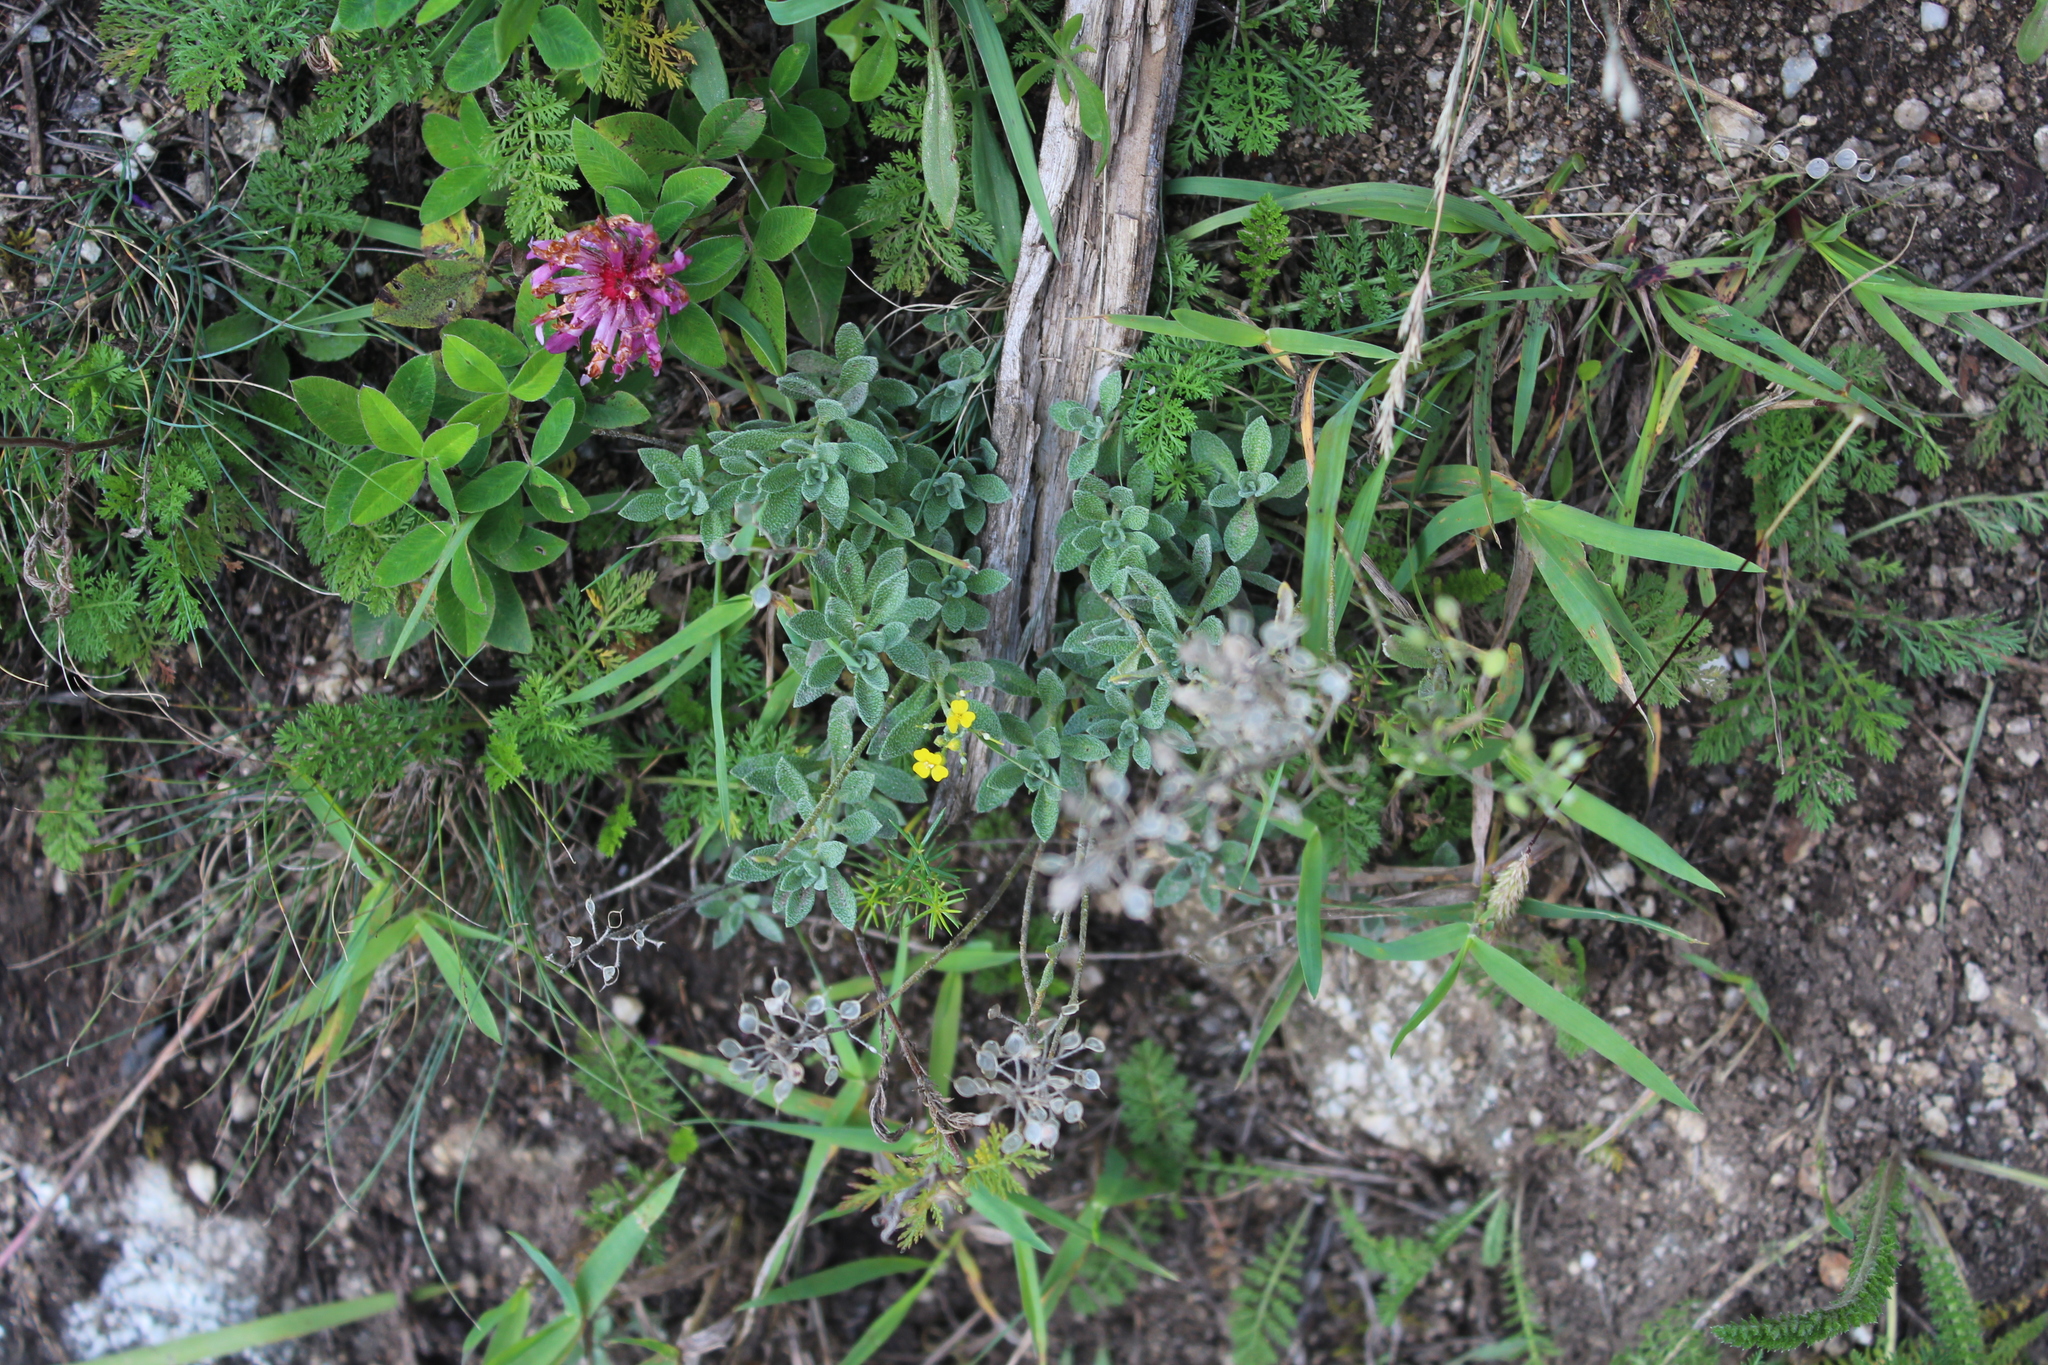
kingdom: Plantae
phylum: Tracheophyta
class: Magnoliopsida
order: Brassicales
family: Brassicaceae
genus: Alyssum
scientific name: Alyssum trichostachyum
